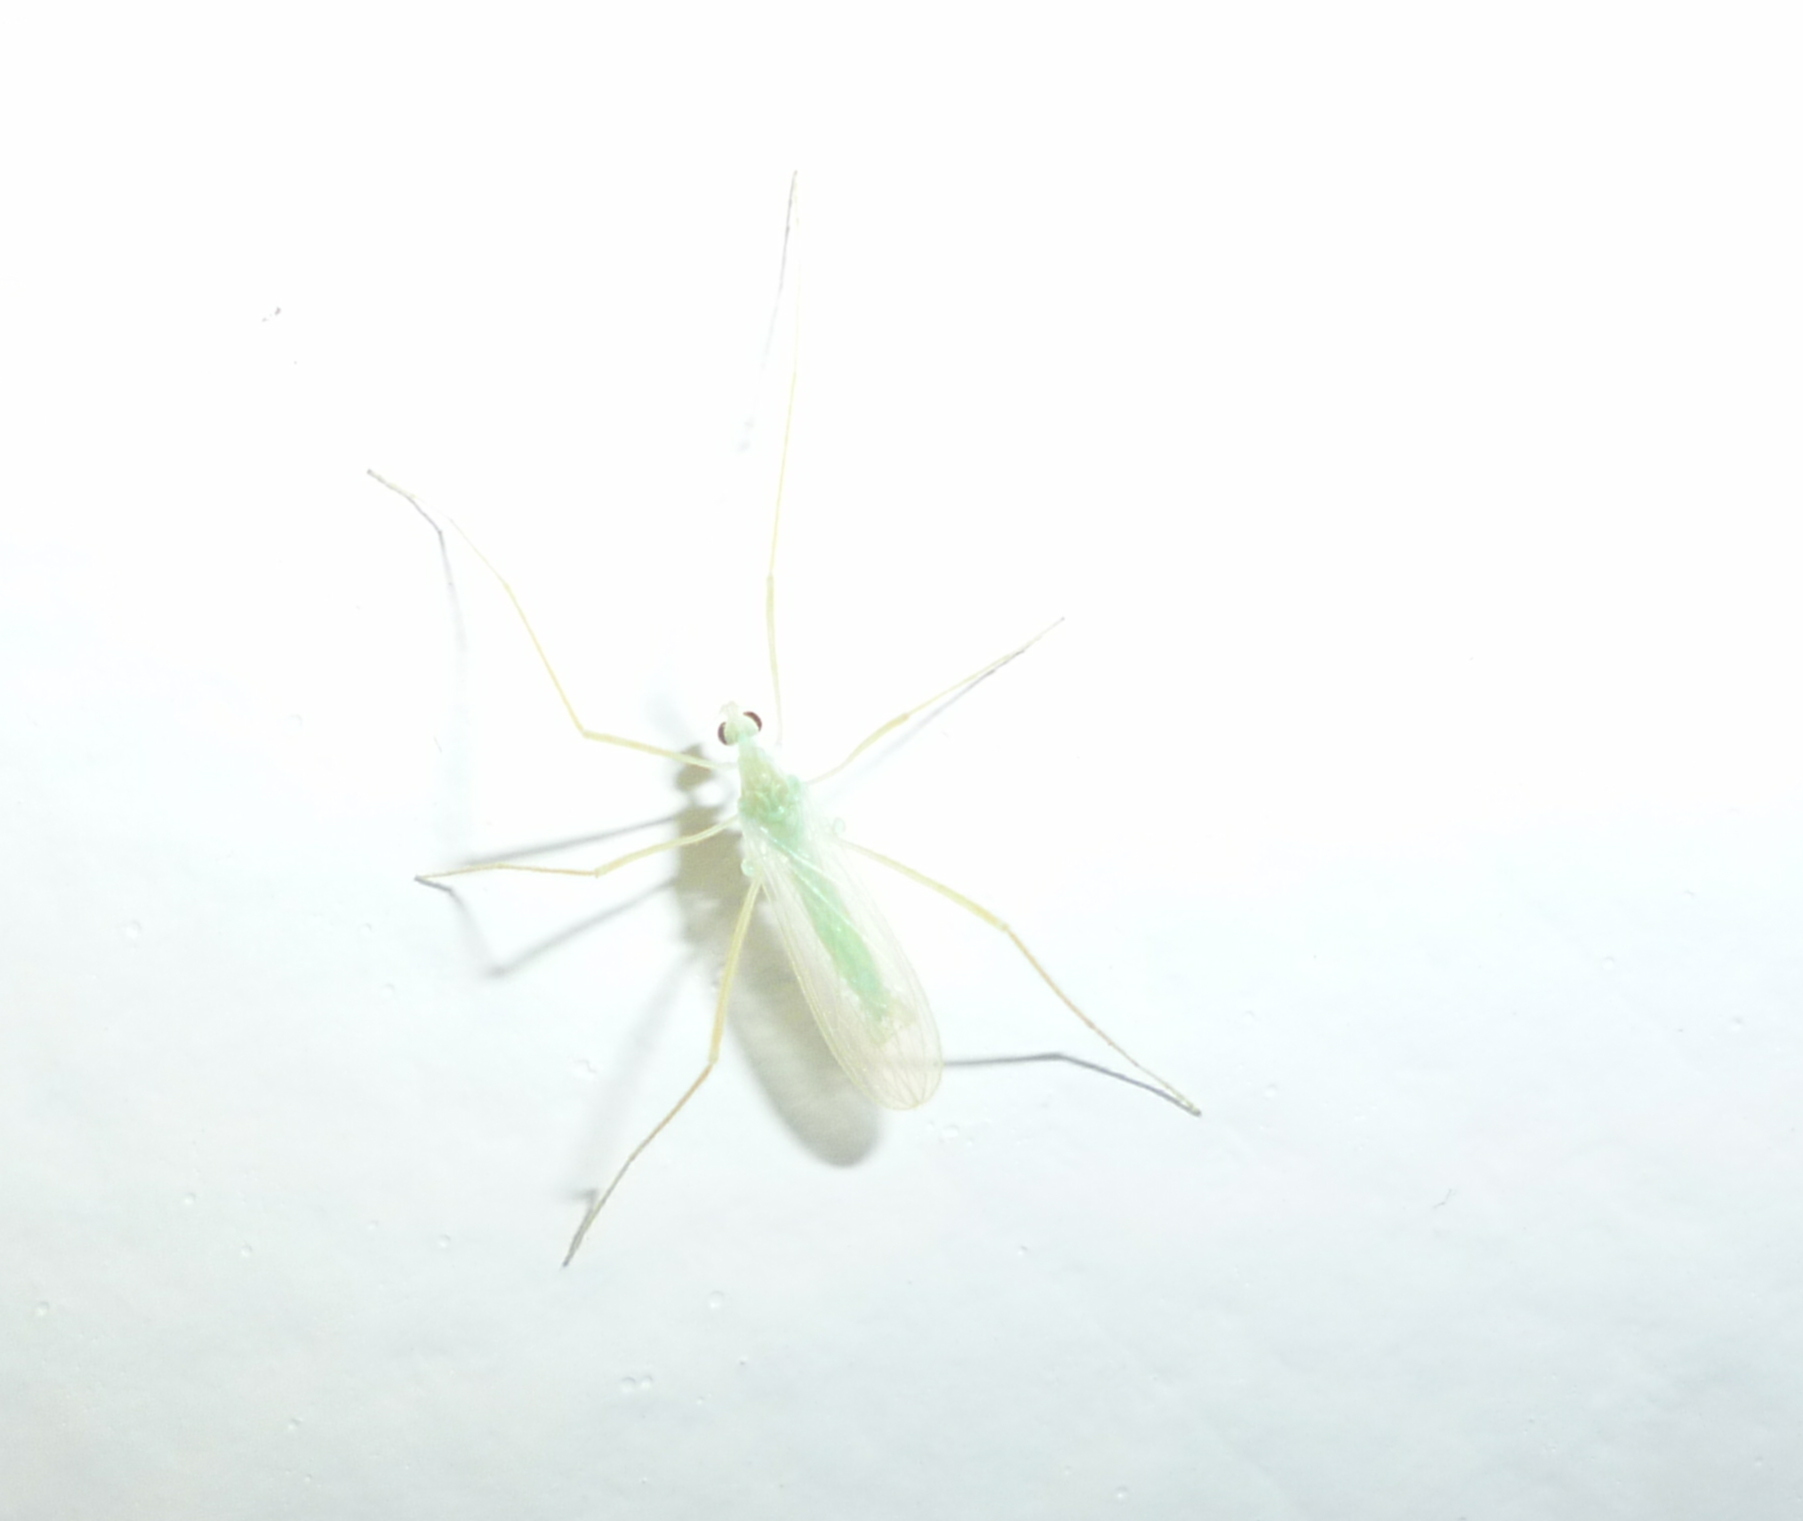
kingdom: Animalia
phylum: Arthropoda
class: Insecta
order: Diptera
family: Limoniidae
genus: Erioptera
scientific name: Erioptera
